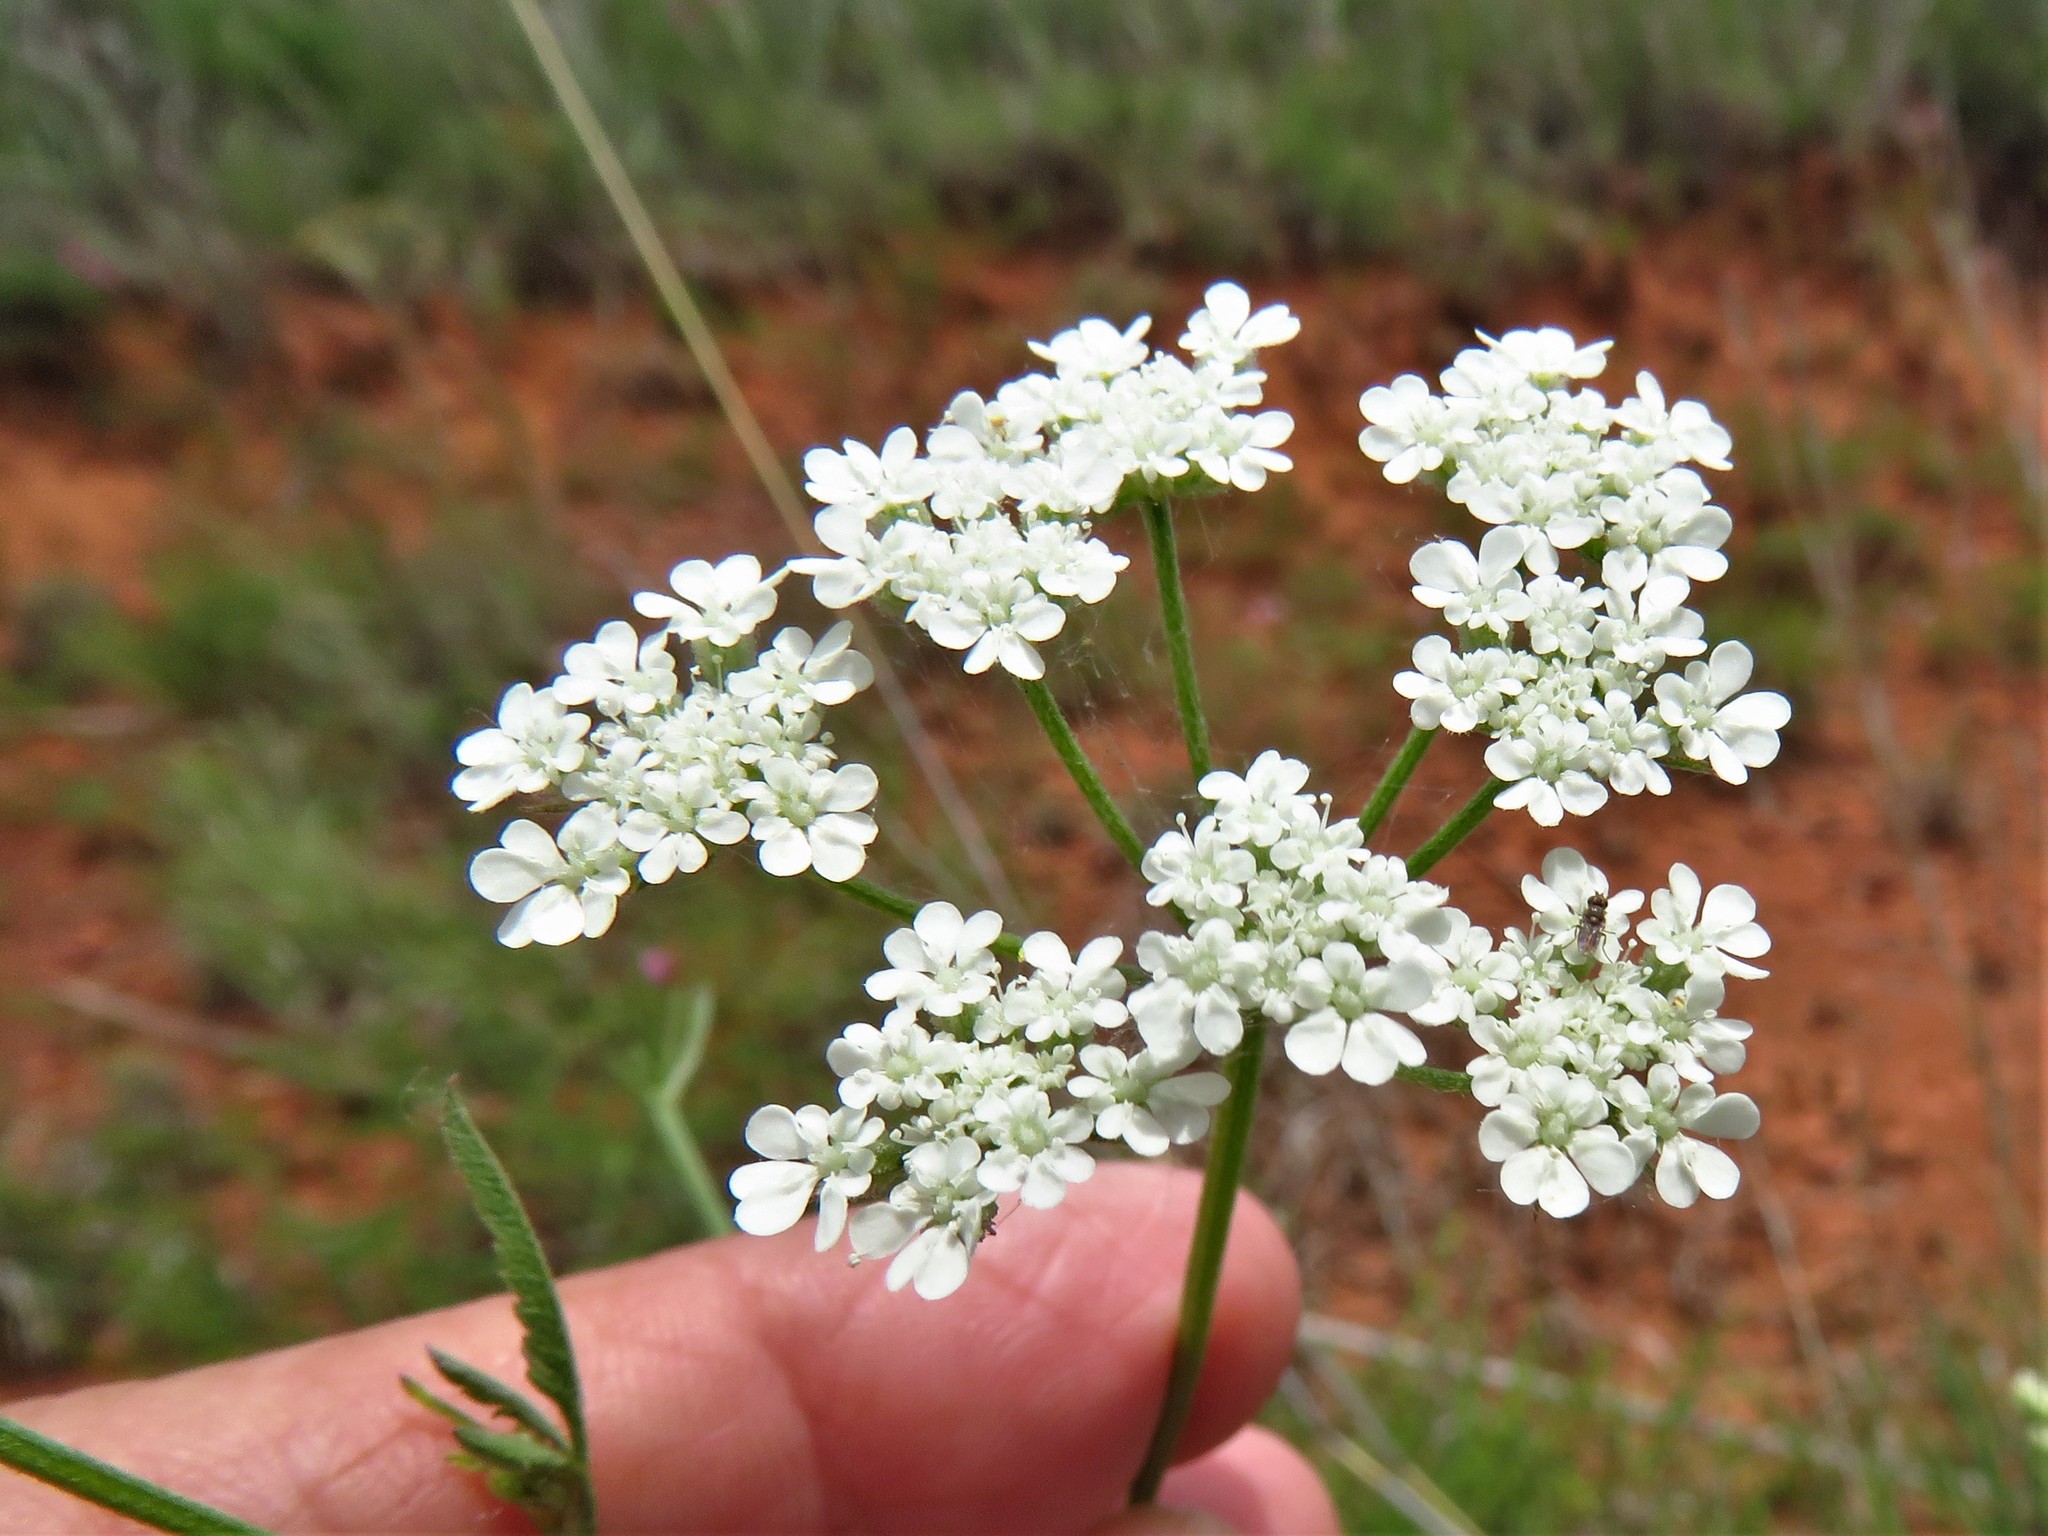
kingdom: Plantae
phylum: Tracheophyta
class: Magnoliopsida
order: Apiales
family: Apiaceae
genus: Torilis
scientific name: Torilis arvensis
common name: Spreading hedge-parsley
